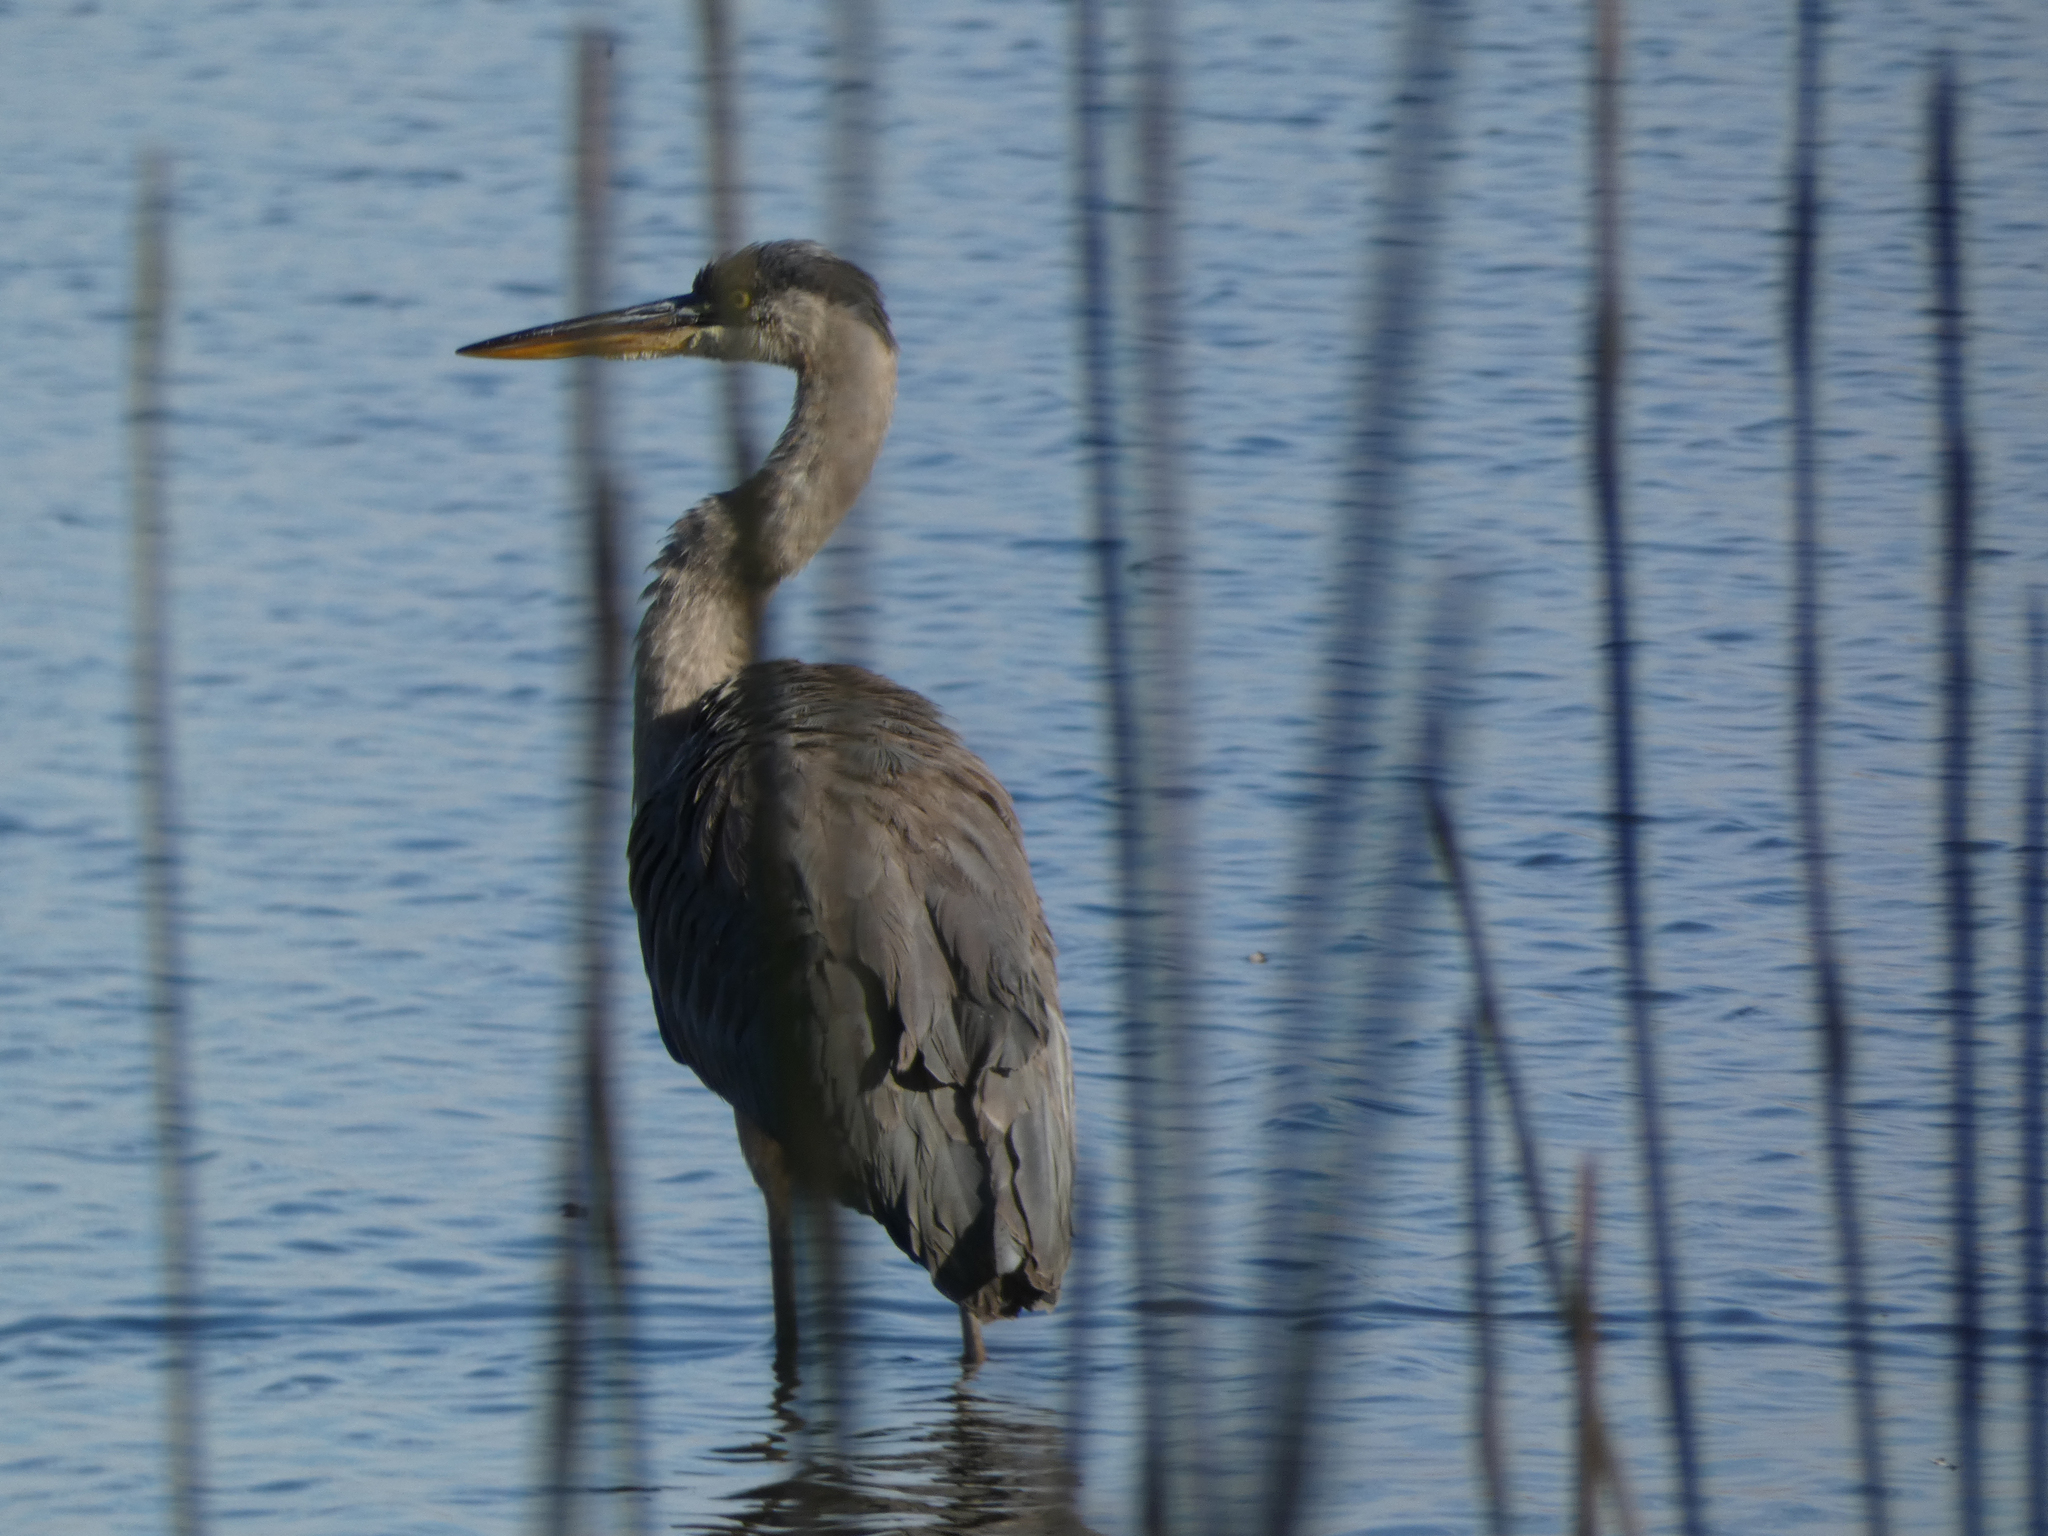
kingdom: Animalia
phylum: Chordata
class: Aves
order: Pelecaniformes
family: Ardeidae
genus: Ardea
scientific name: Ardea herodias
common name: Great blue heron
